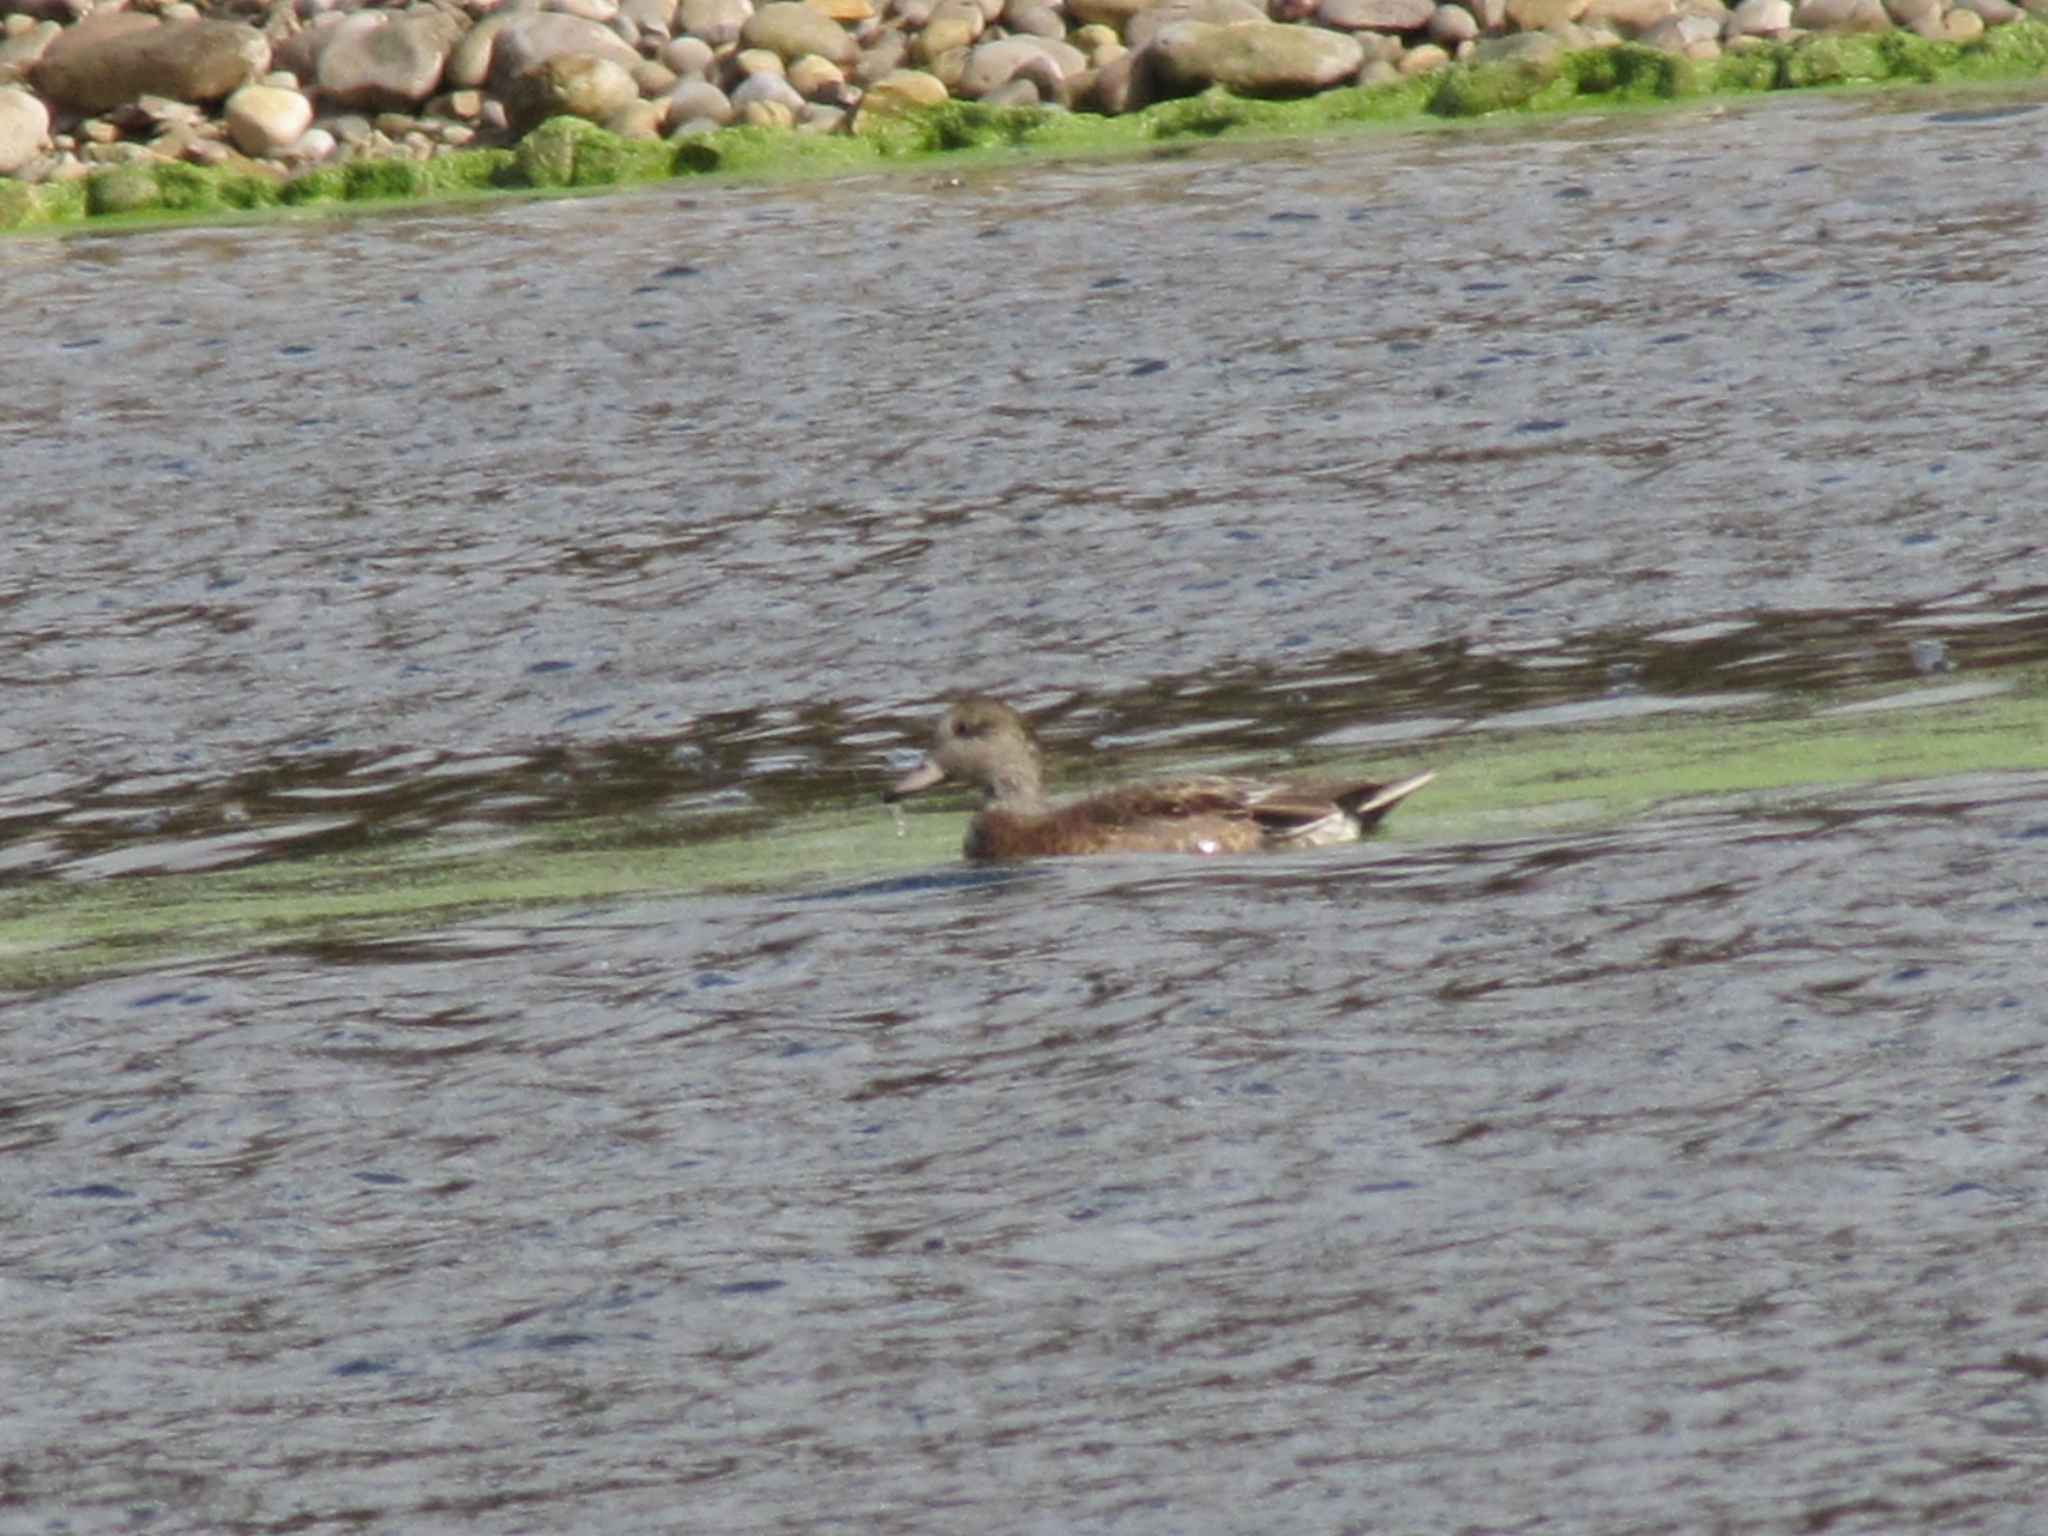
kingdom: Animalia
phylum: Chordata
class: Aves
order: Anseriformes
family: Anatidae
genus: Mareca
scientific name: Mareca americana
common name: American wigeon
